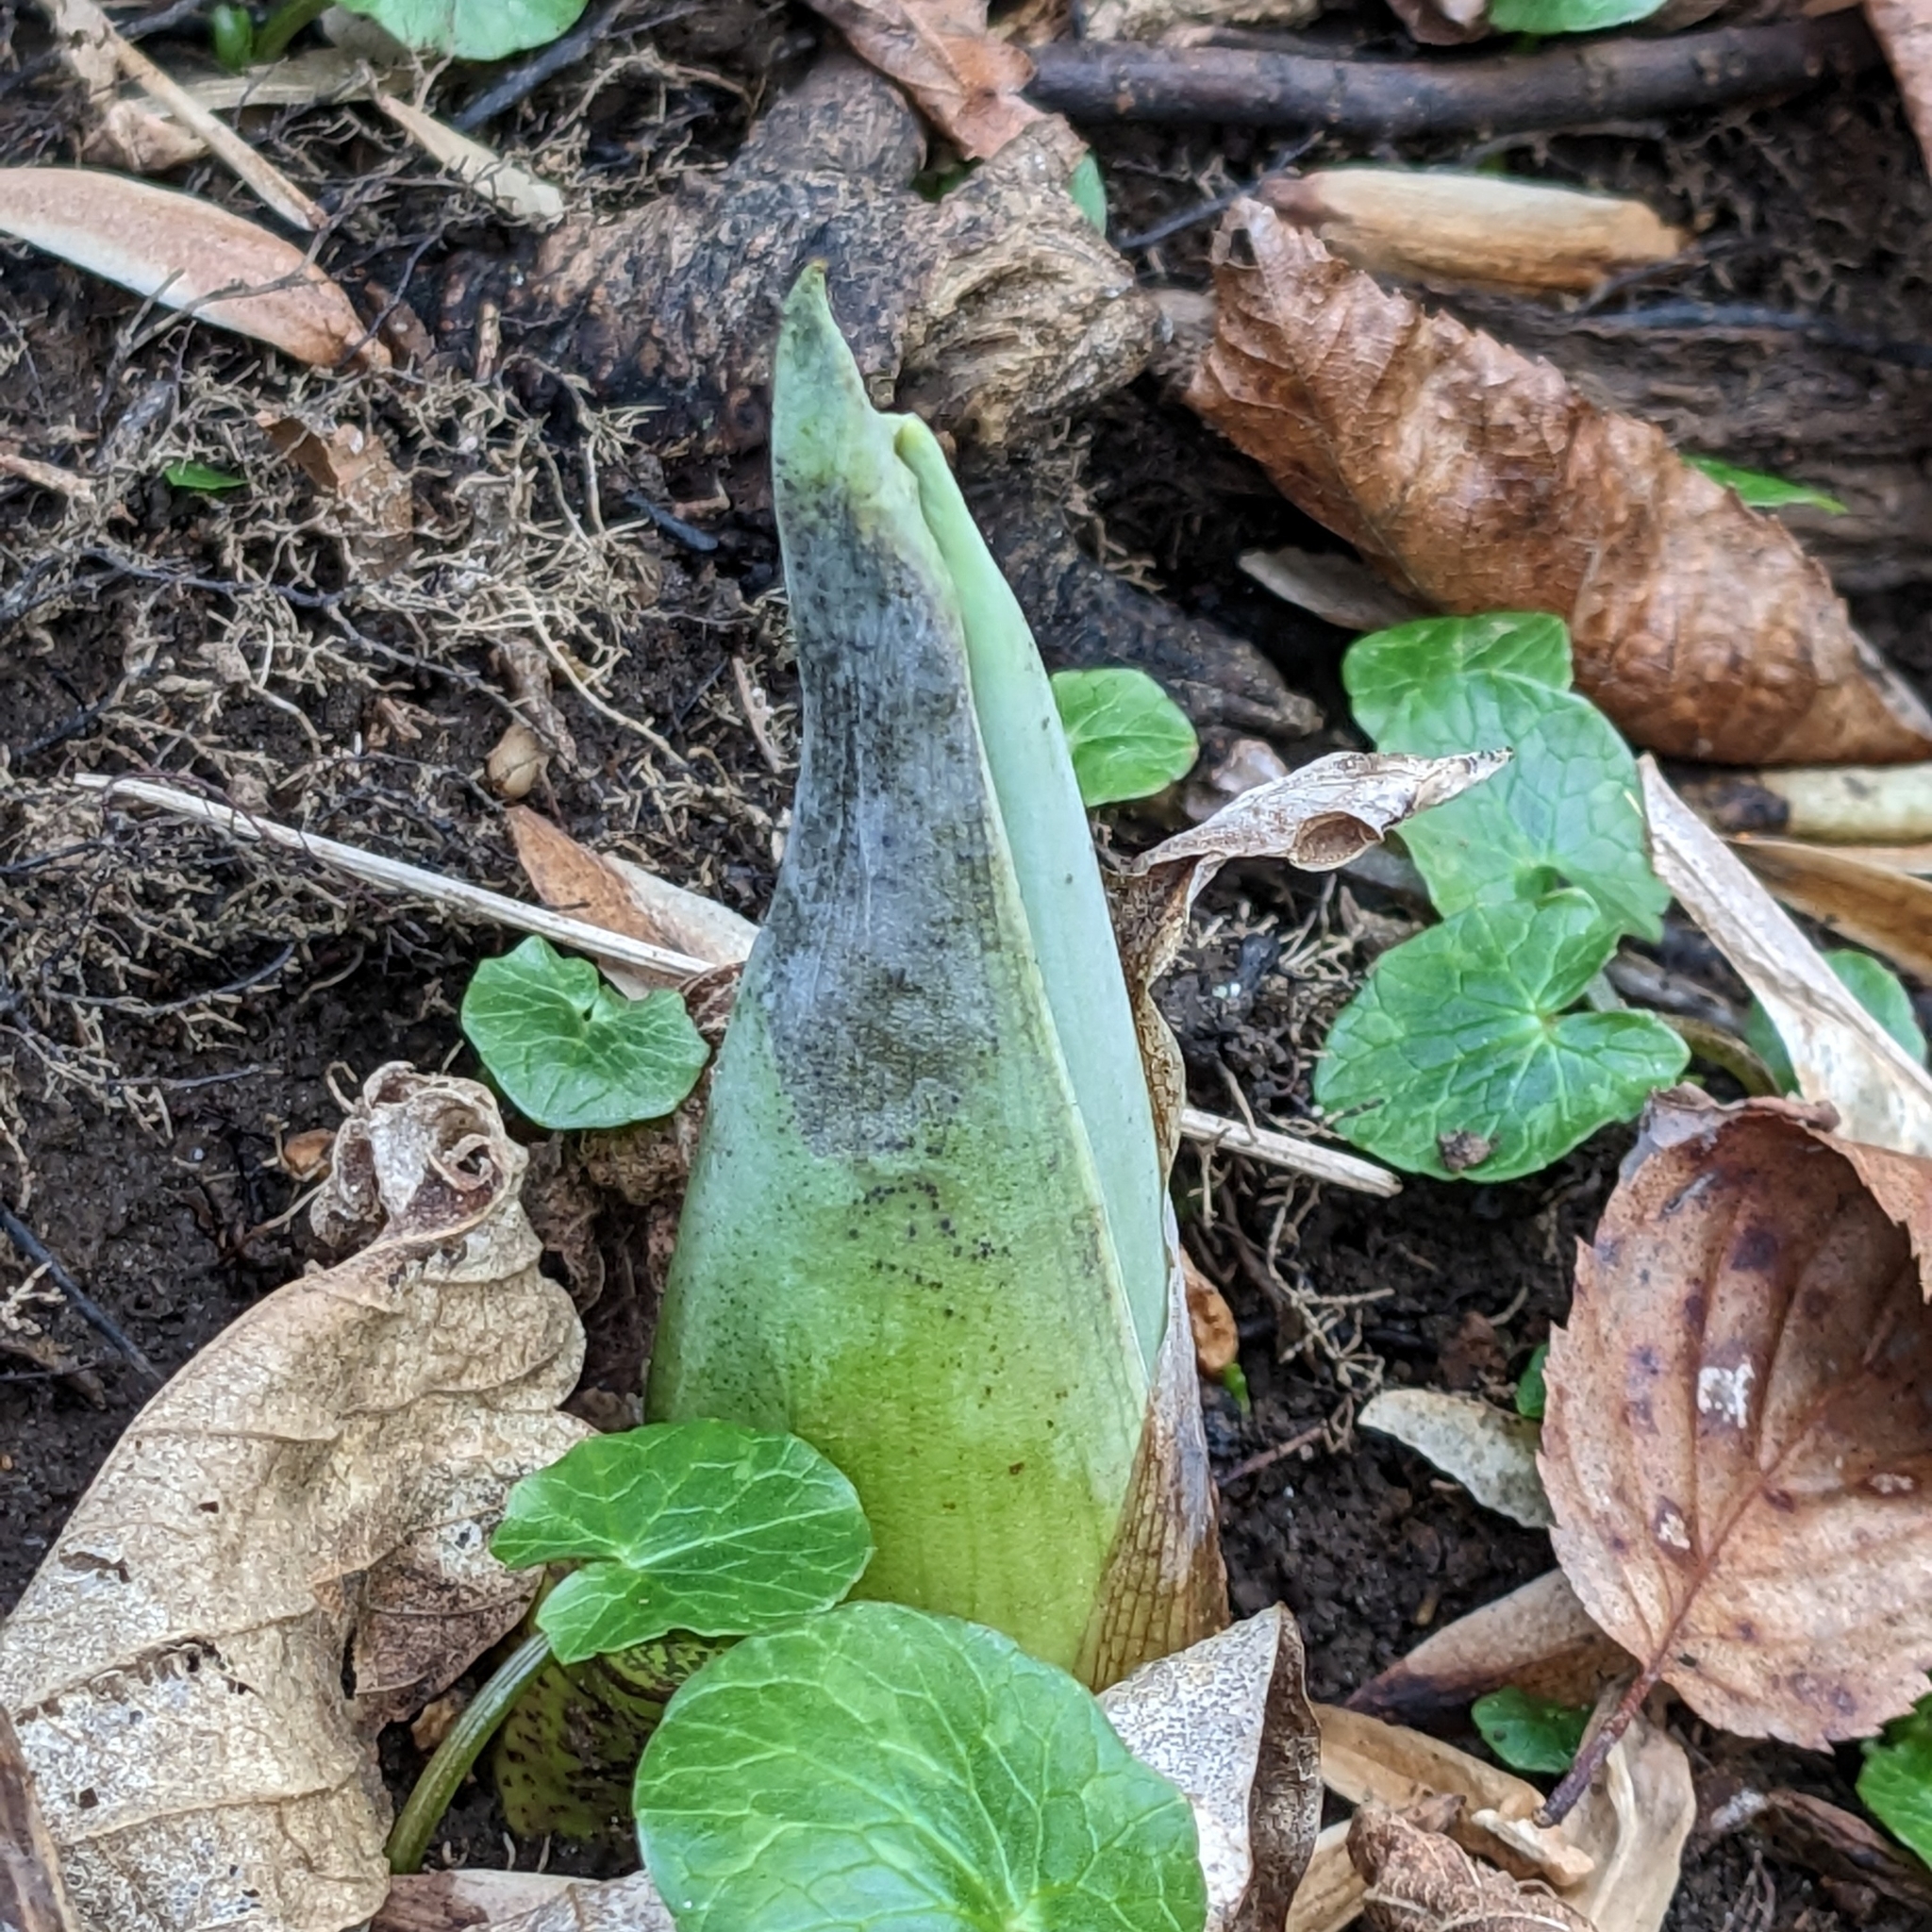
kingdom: Plantae
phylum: Tracheophyta
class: Liliopsida
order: Alismatales
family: Araceae
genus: Symplocarpus
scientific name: Symplocarpus foetidus
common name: Eastern skunk cabbage
